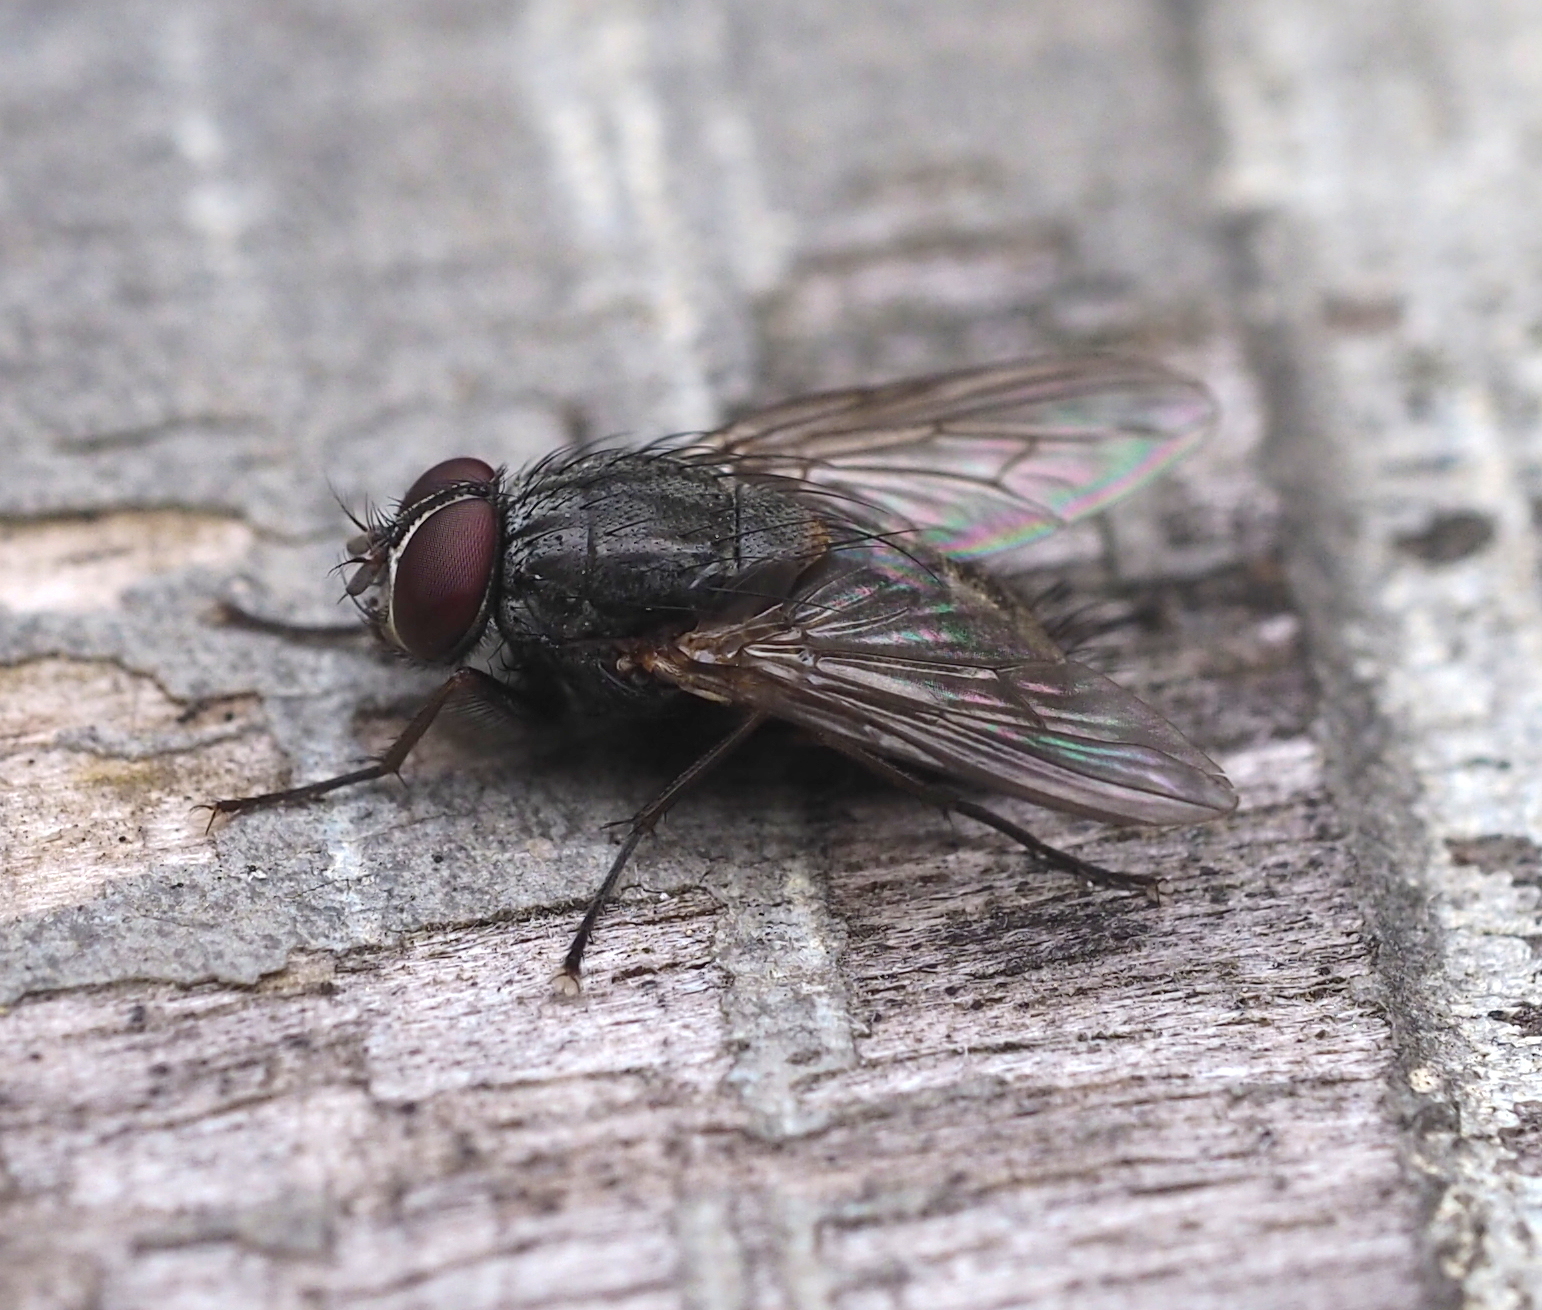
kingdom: Animalia
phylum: Arthropoda
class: Insecta
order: Diptera
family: Muscidae
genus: Muscina
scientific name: Muscina levida
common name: House fly
